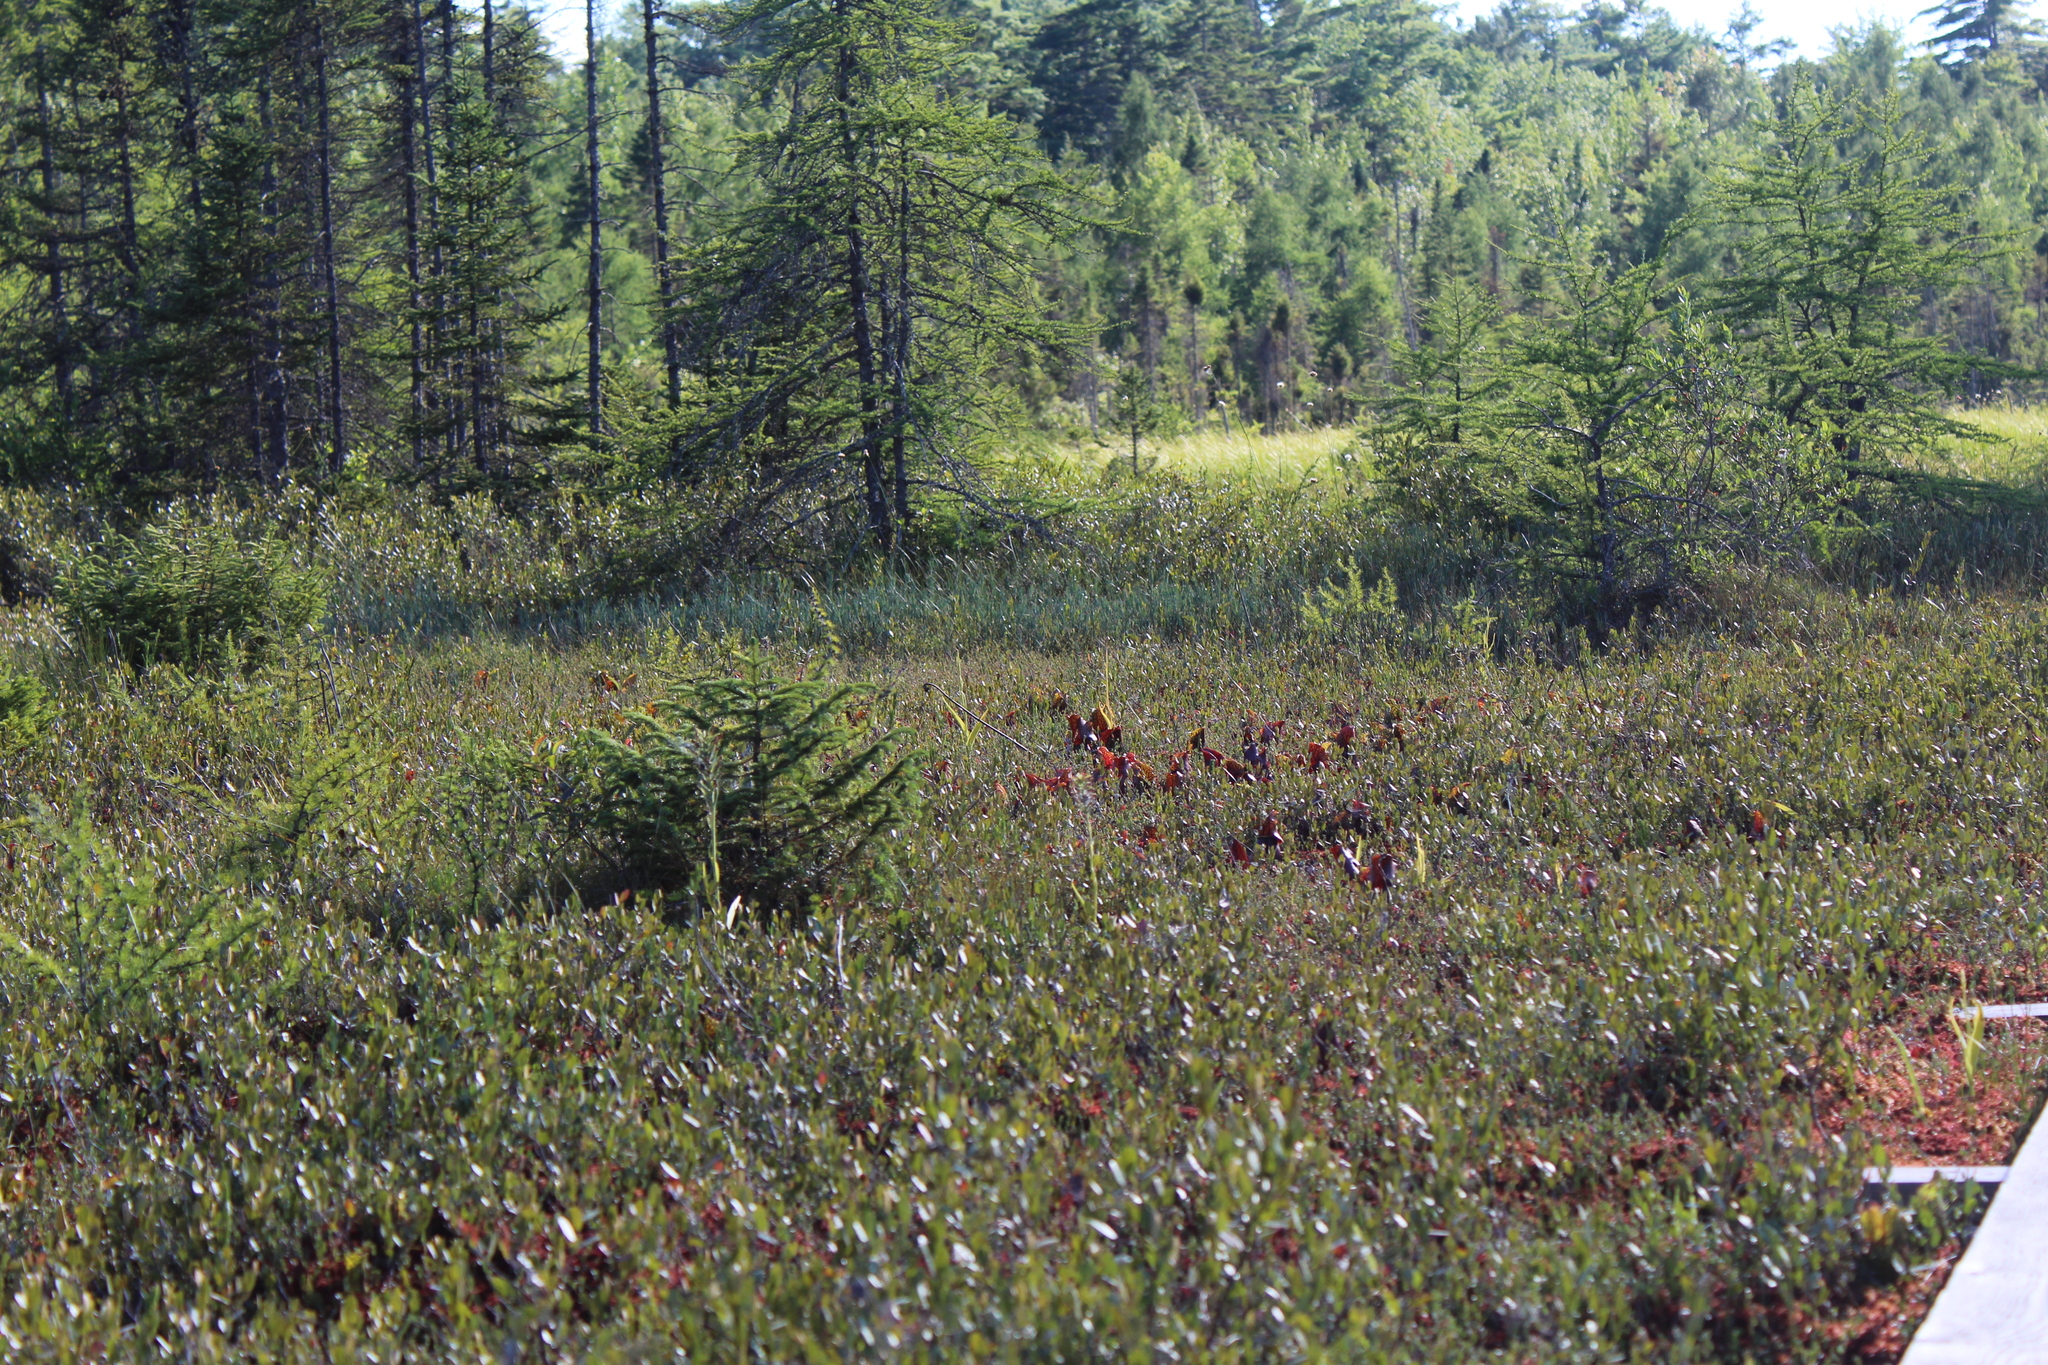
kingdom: Plantae
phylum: Tracheophyta
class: Pinopsida
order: Pinales
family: Pinaceae
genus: Larix
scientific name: Larix laricina
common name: American larch
